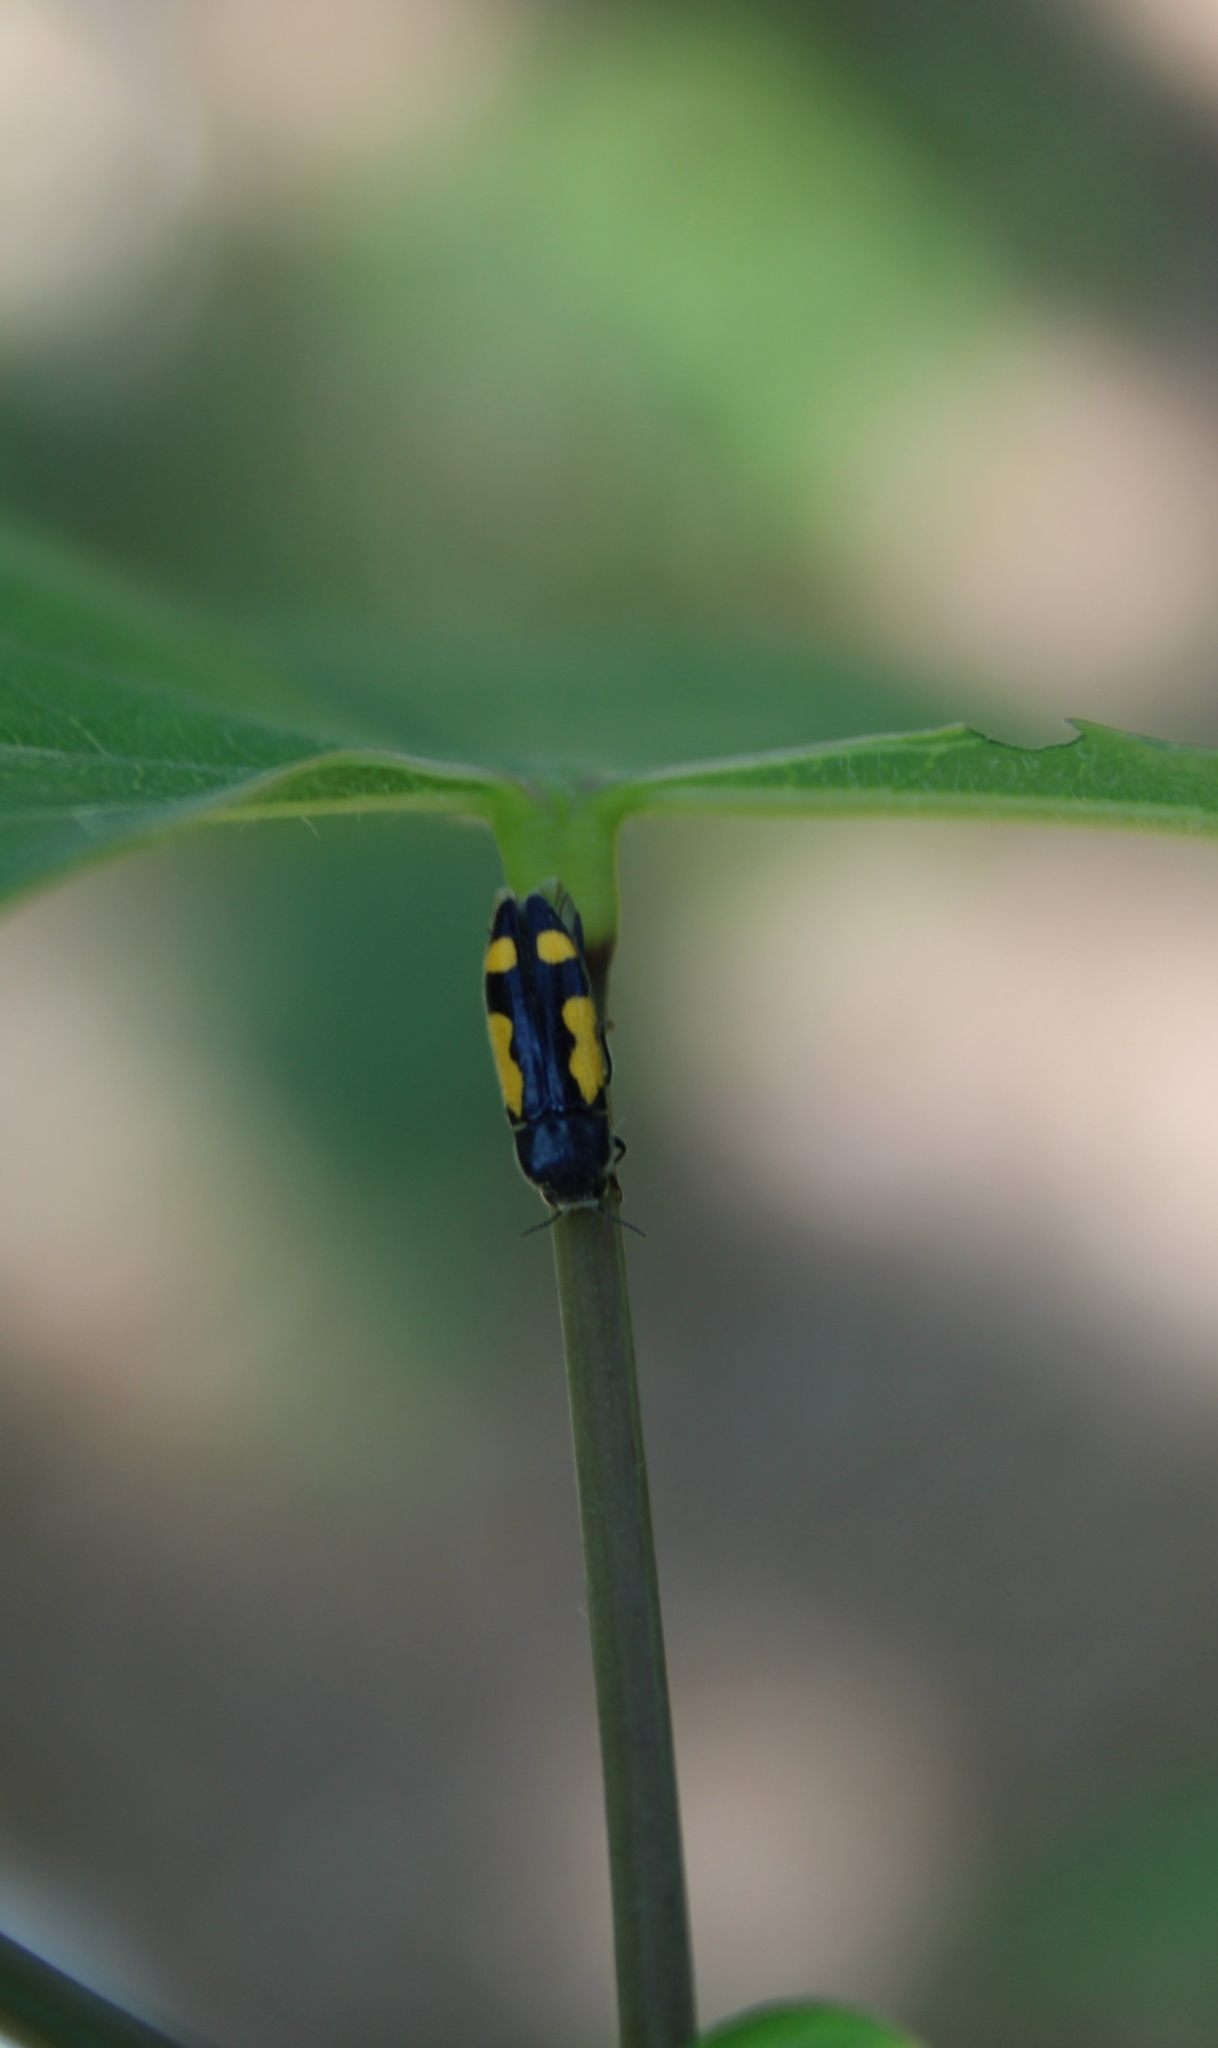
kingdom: Animalia
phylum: Arthropoda
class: Insecta
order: Coleoptera
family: Buprestidae
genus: Ptosima
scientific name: Ptosima gibbicollis
